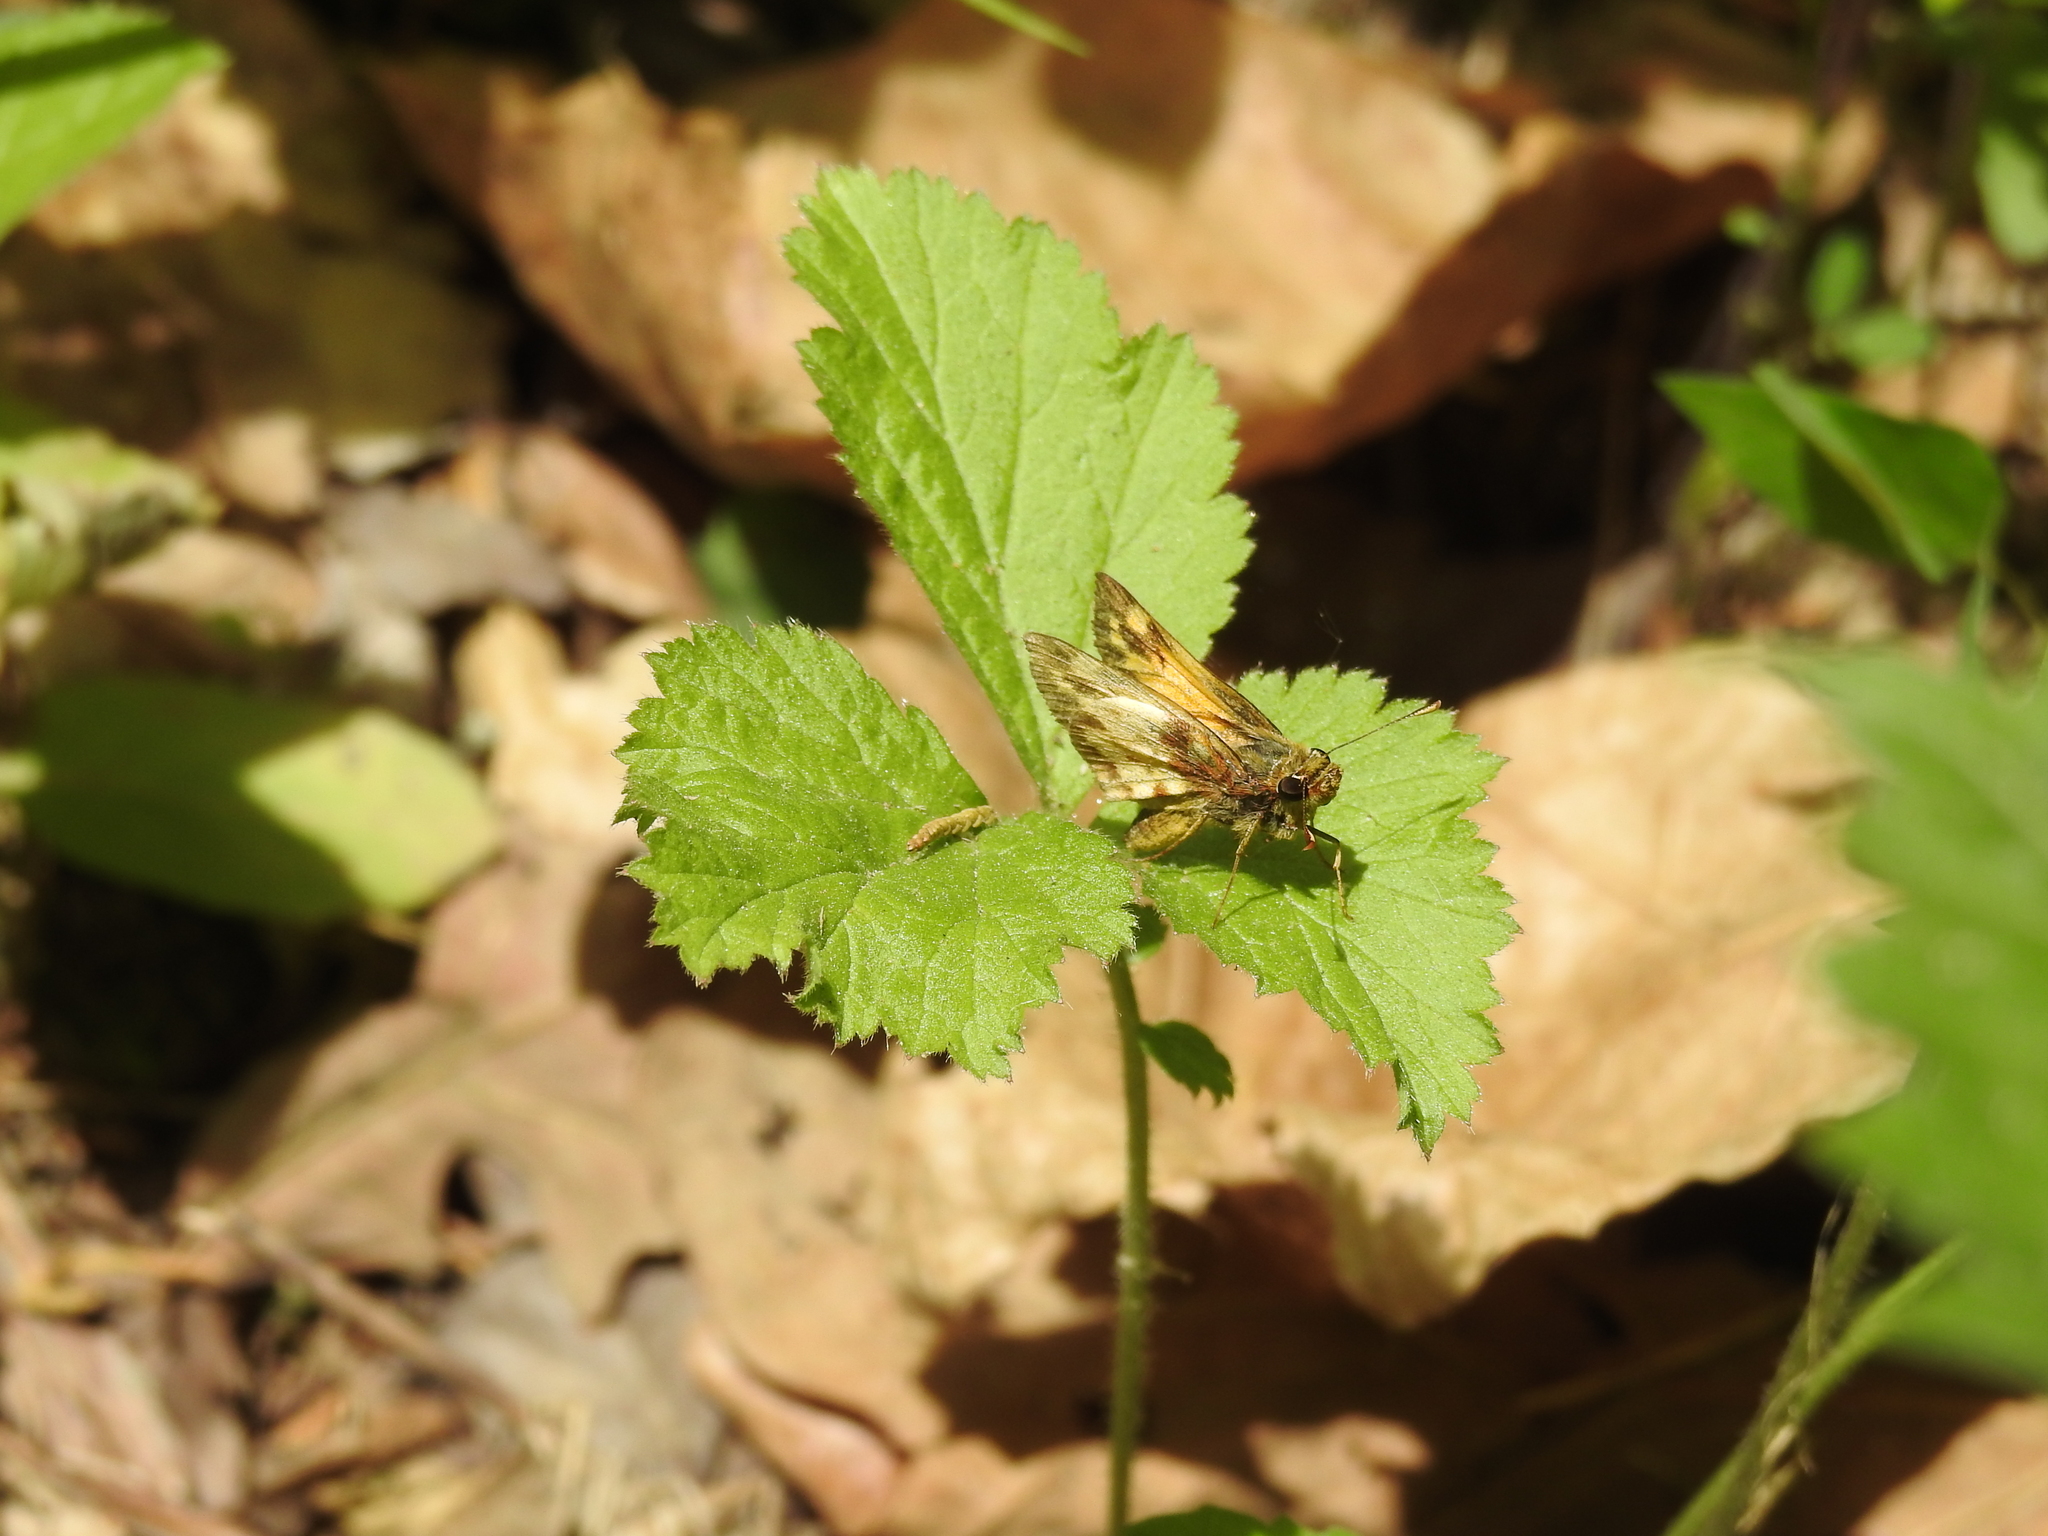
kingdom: Animalia
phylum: Arthropoda
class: Insecta
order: Lepidoptera
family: Hesperiidae
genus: Lon
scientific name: Lon zabulon
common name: Zabulon skipper
